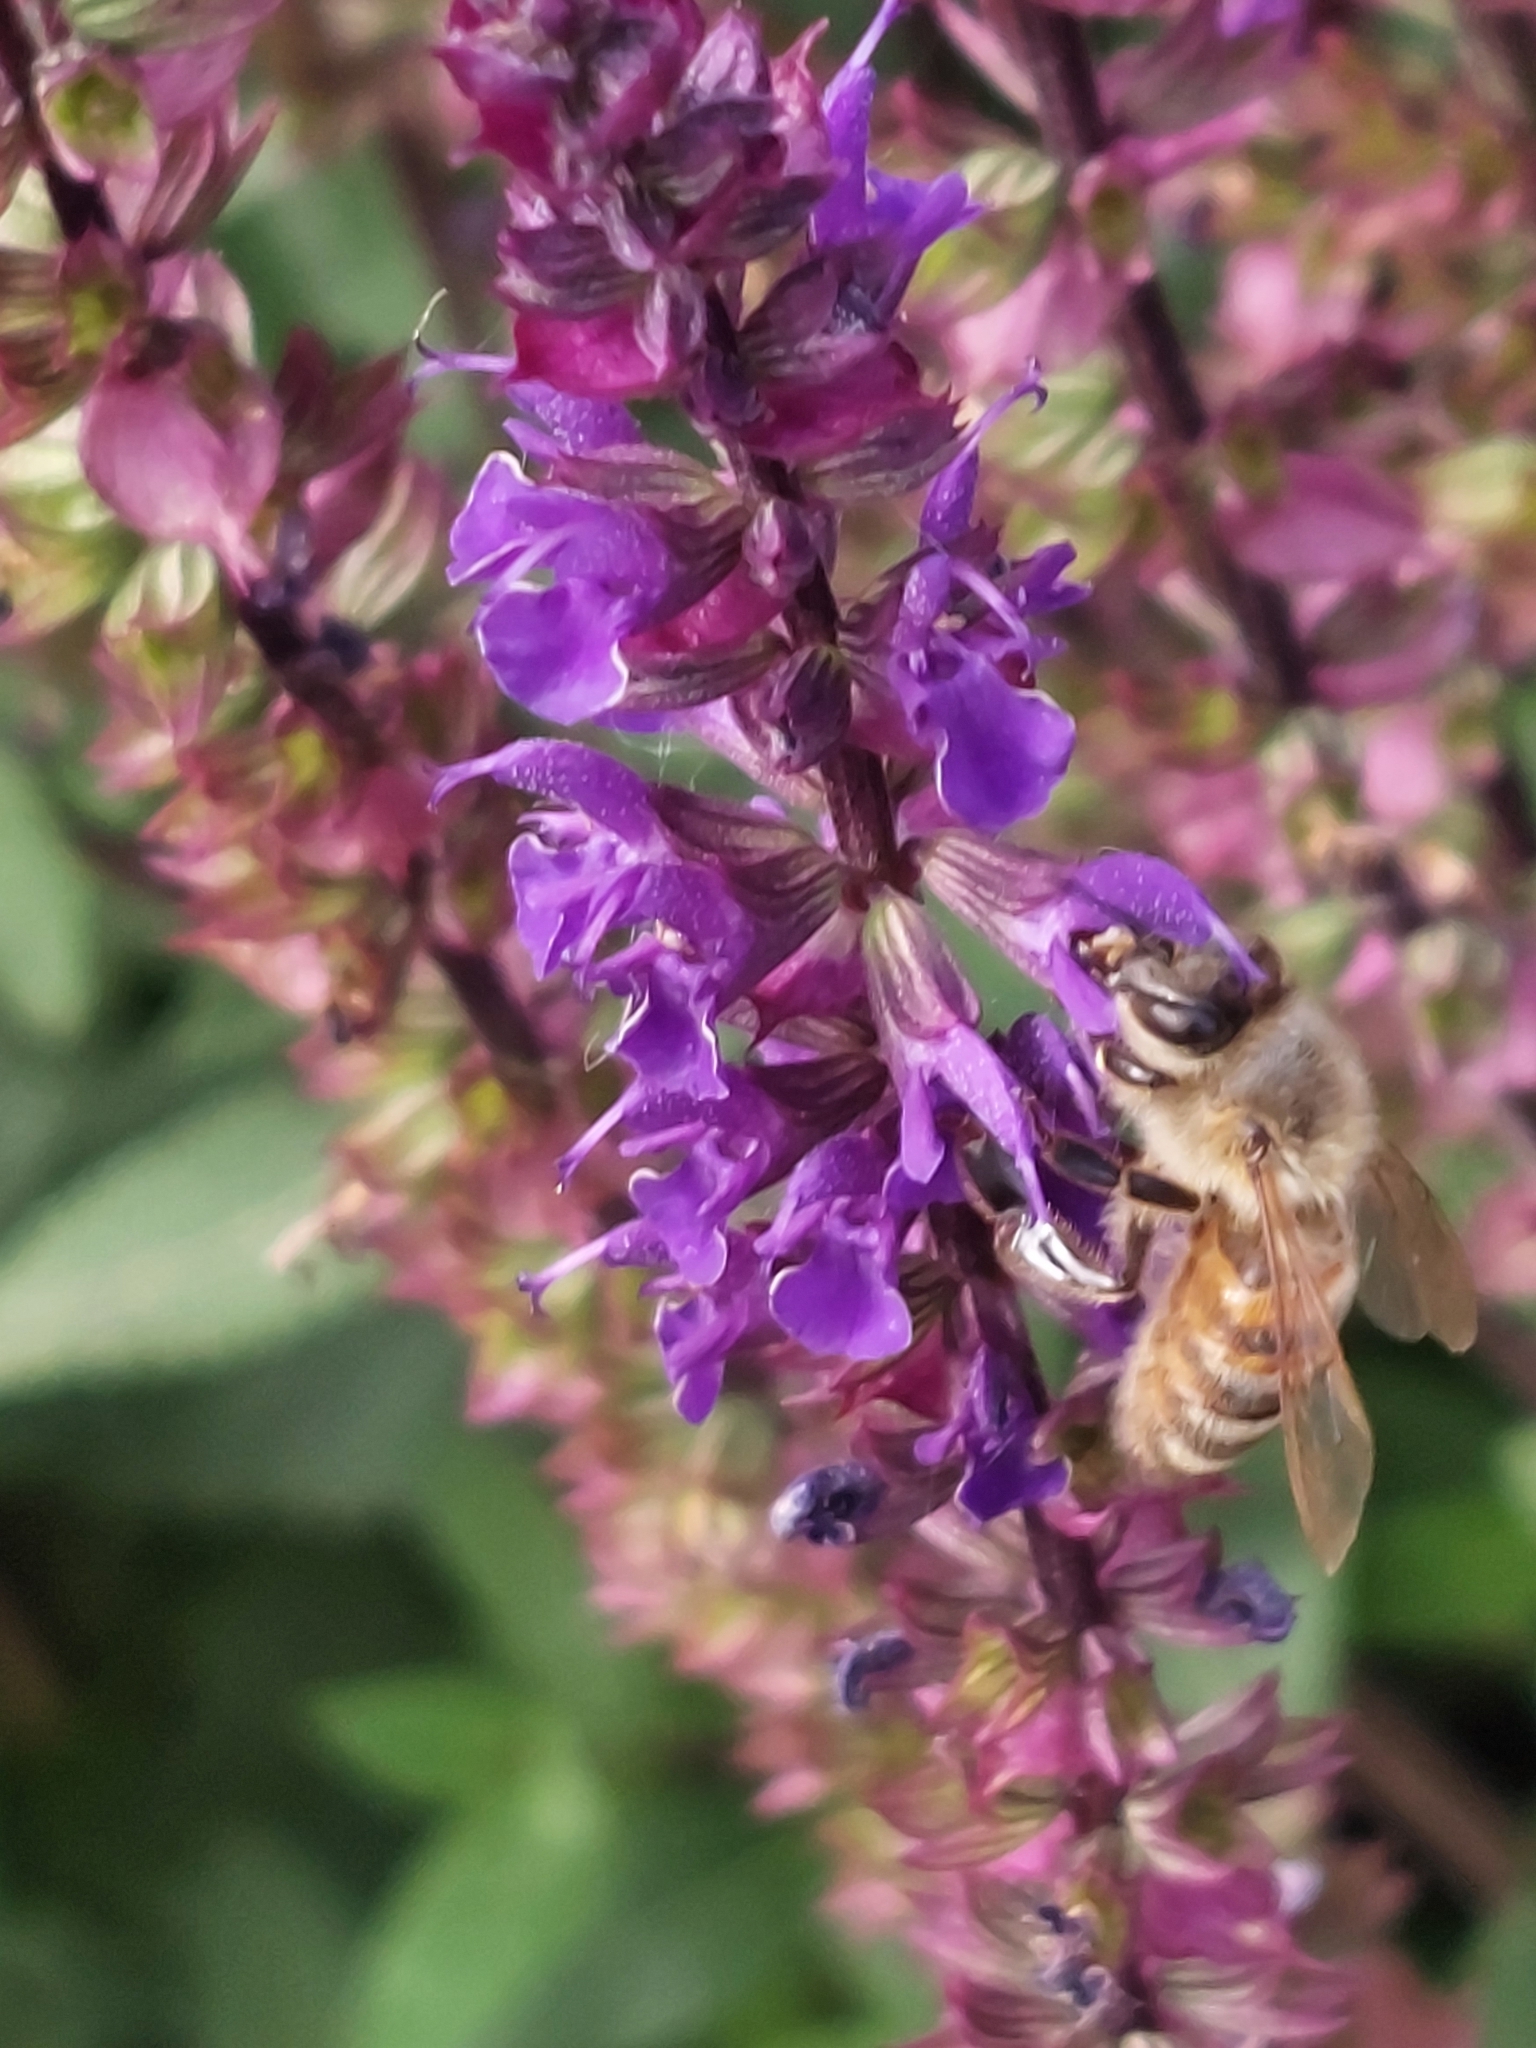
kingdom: Animalia
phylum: Arthropoda
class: Insecta
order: Hymenoptera
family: Apidae
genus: Apis
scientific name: Apis mellifera
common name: Honey bee
